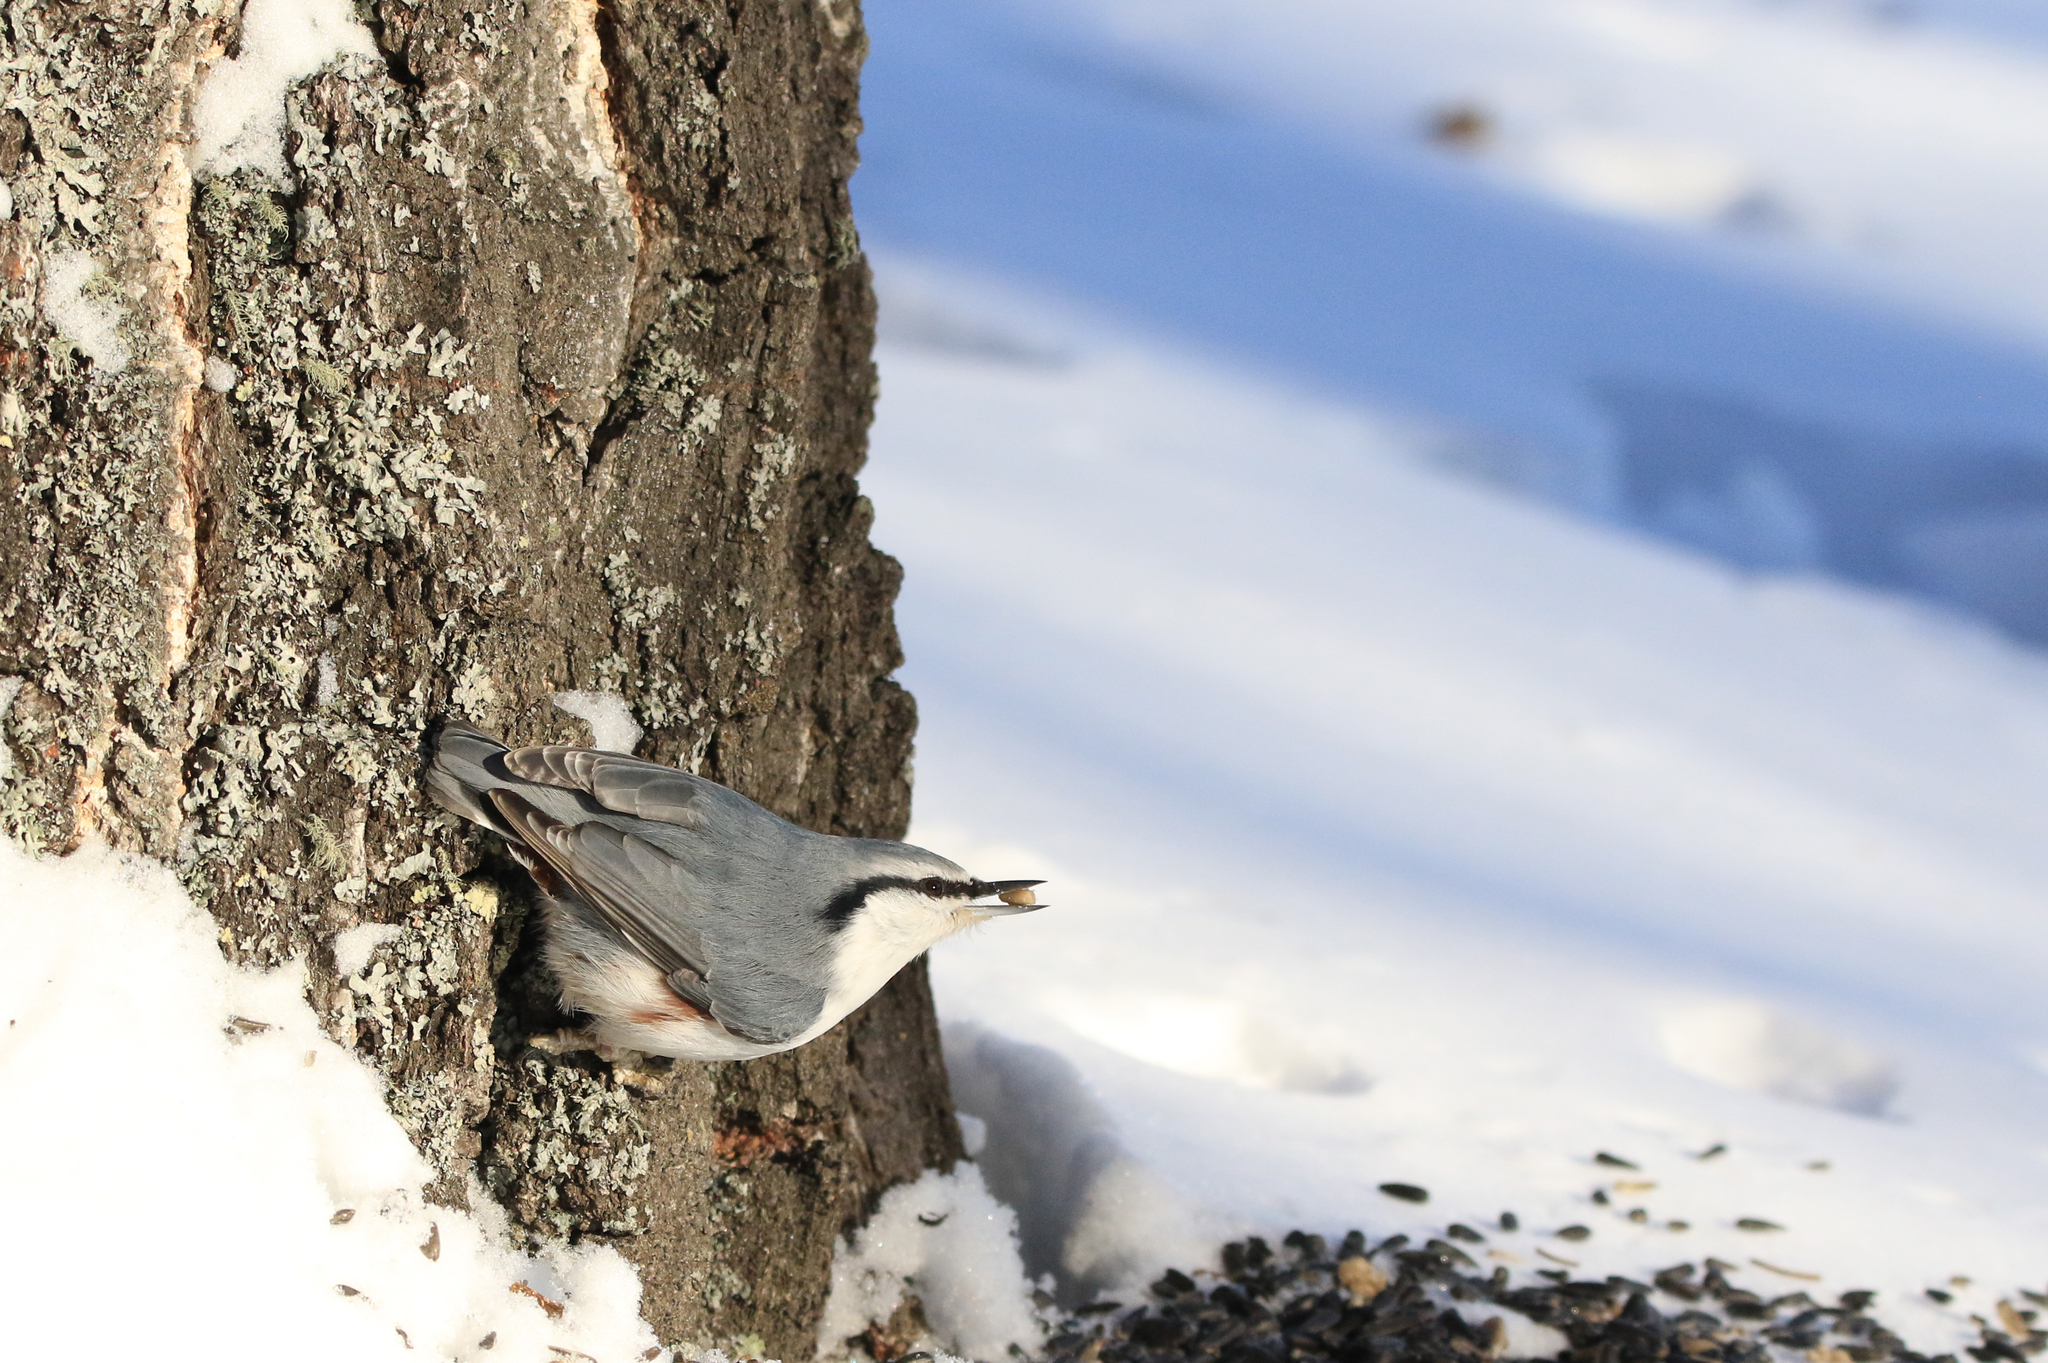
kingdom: Animalia
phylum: Chordata
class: Aves
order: Passeriformes
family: Sittidae
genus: Sitta
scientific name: Sitta europaea
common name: Eurasian nuthatch
